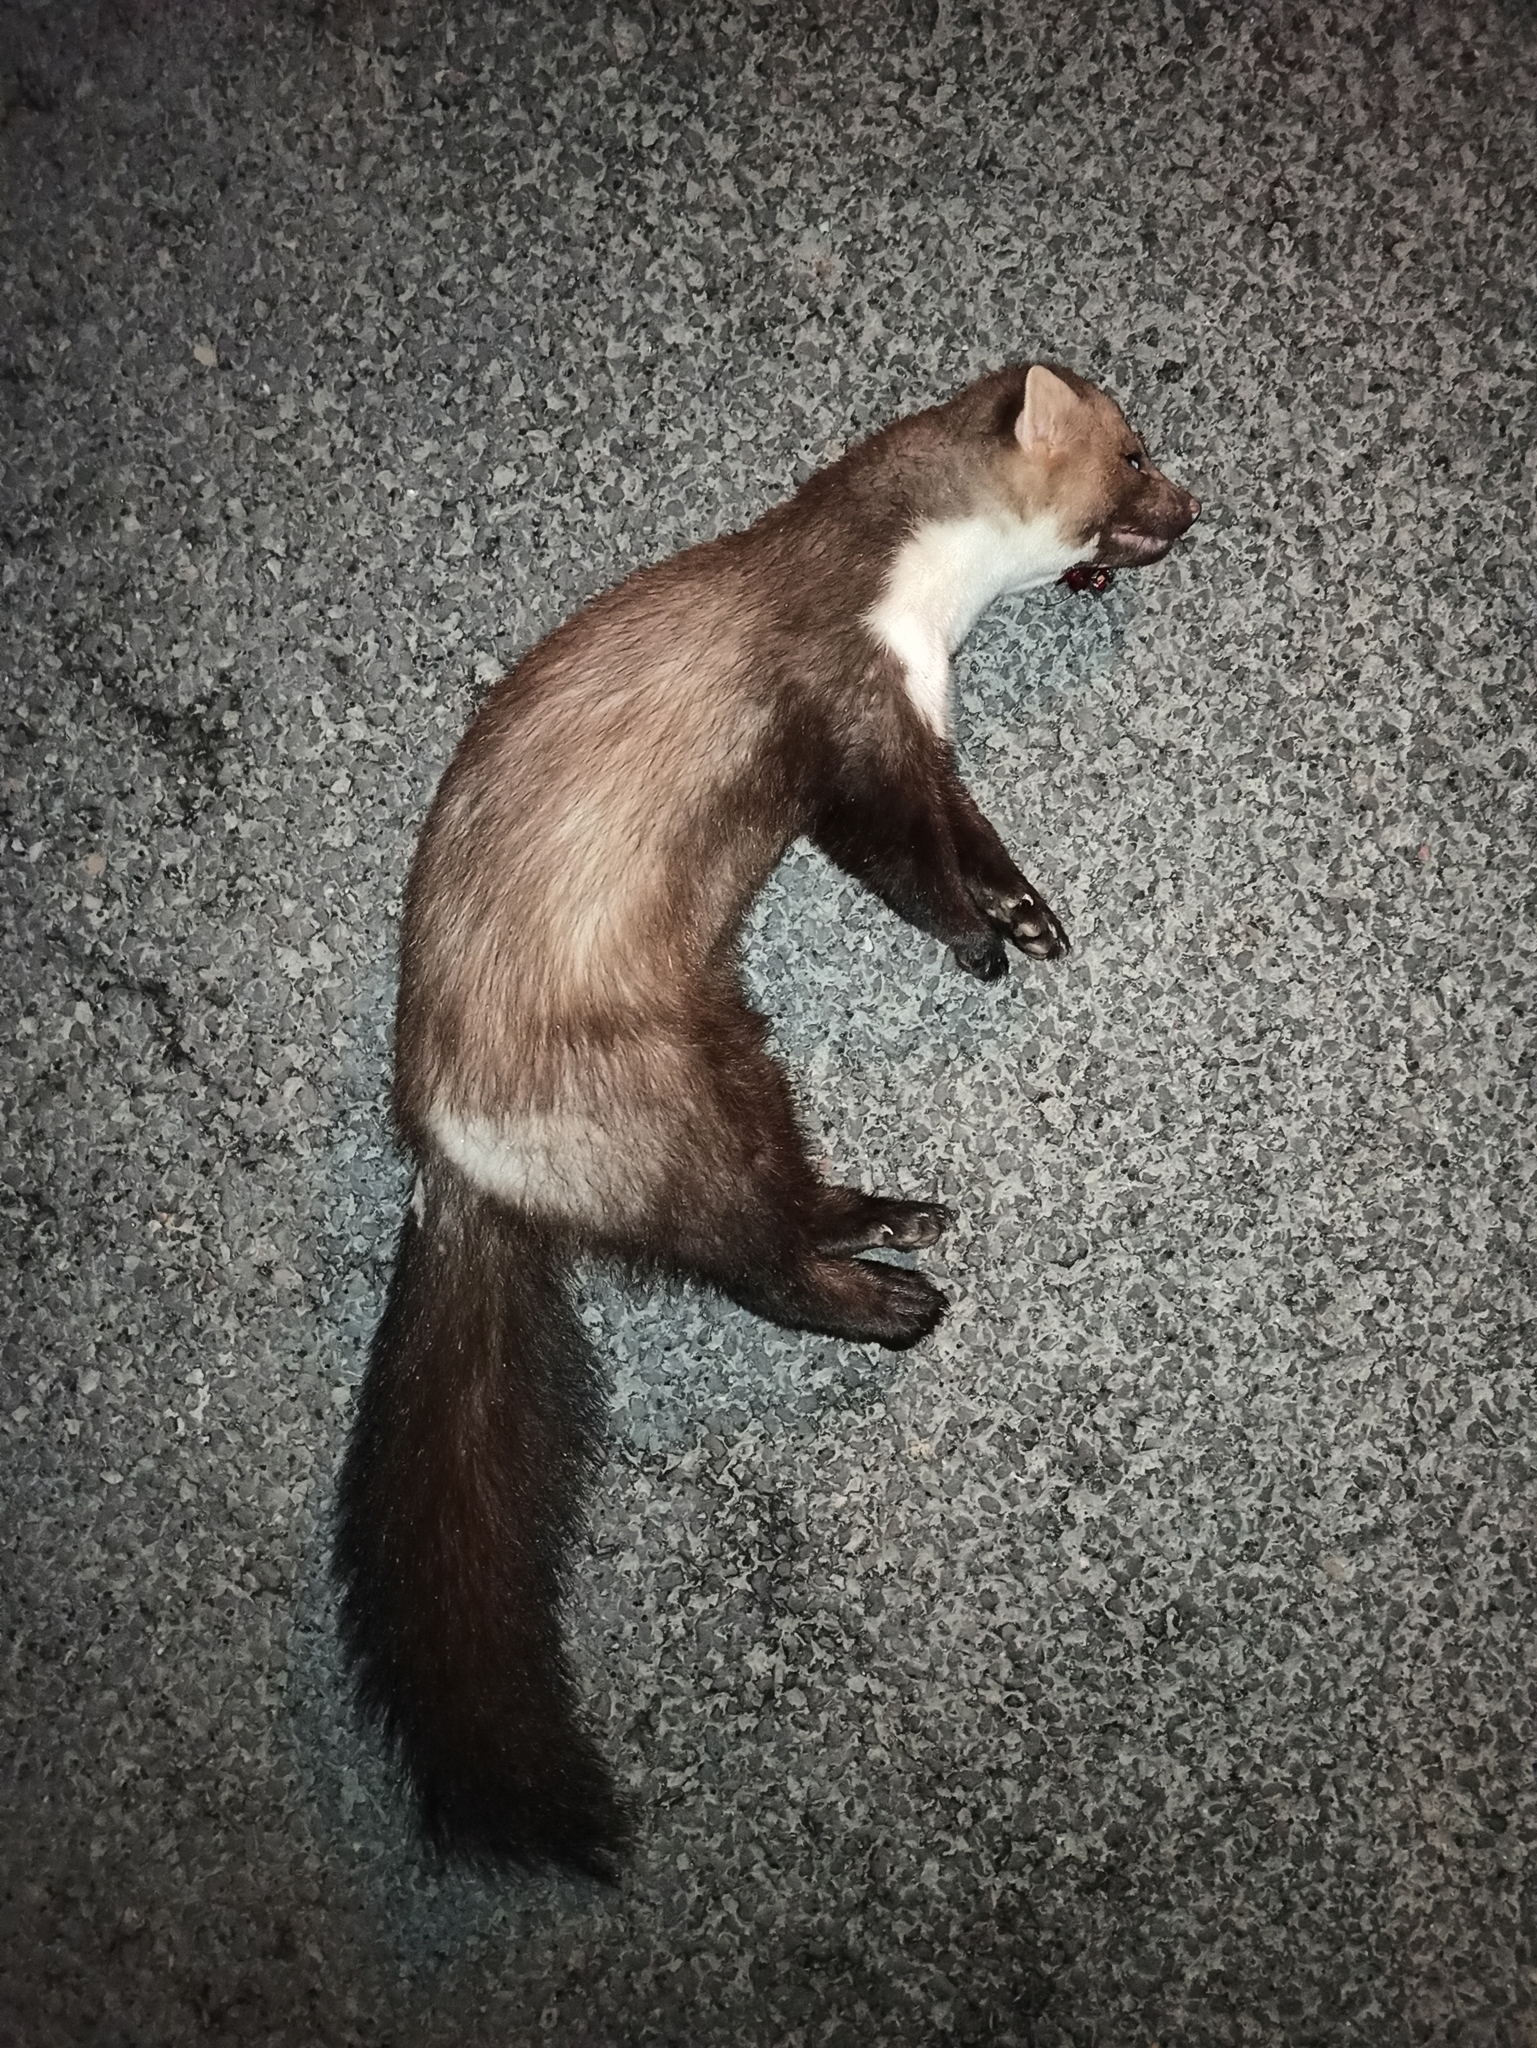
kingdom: Animalia
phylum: Chordata
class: Mammalia
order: Carnivora
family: Mustelidae
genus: Martes
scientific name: Martes foina
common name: Beech marten
